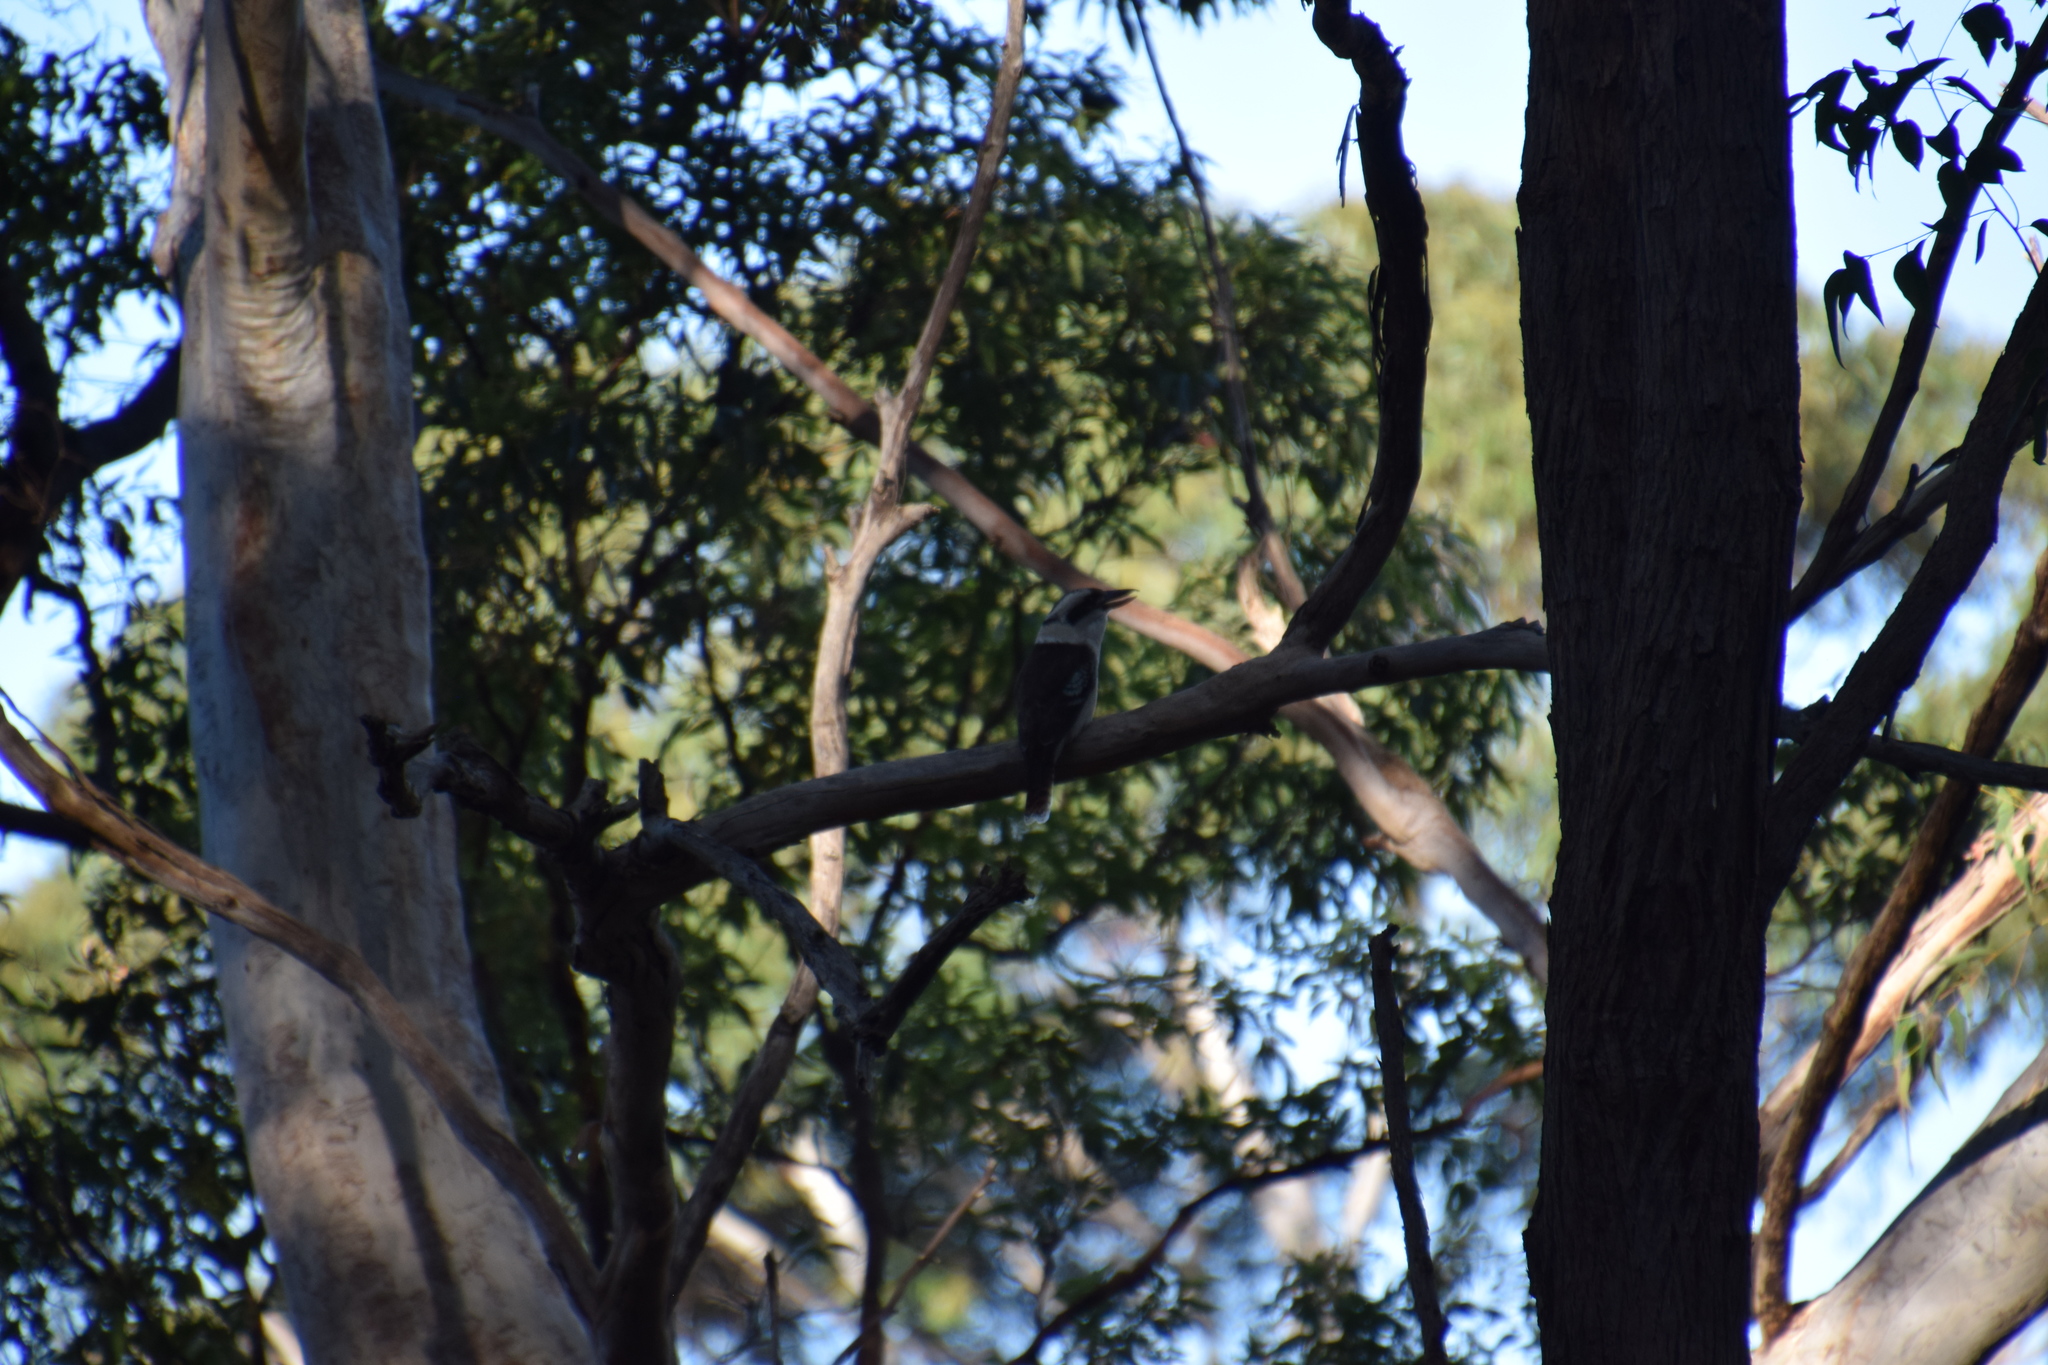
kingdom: Animalia
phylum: Chordata
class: Aves
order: Coraciiformes
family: Alcedinidae
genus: Dacelo
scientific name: Dacelo novaeguineae
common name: Laughing kookaburra
